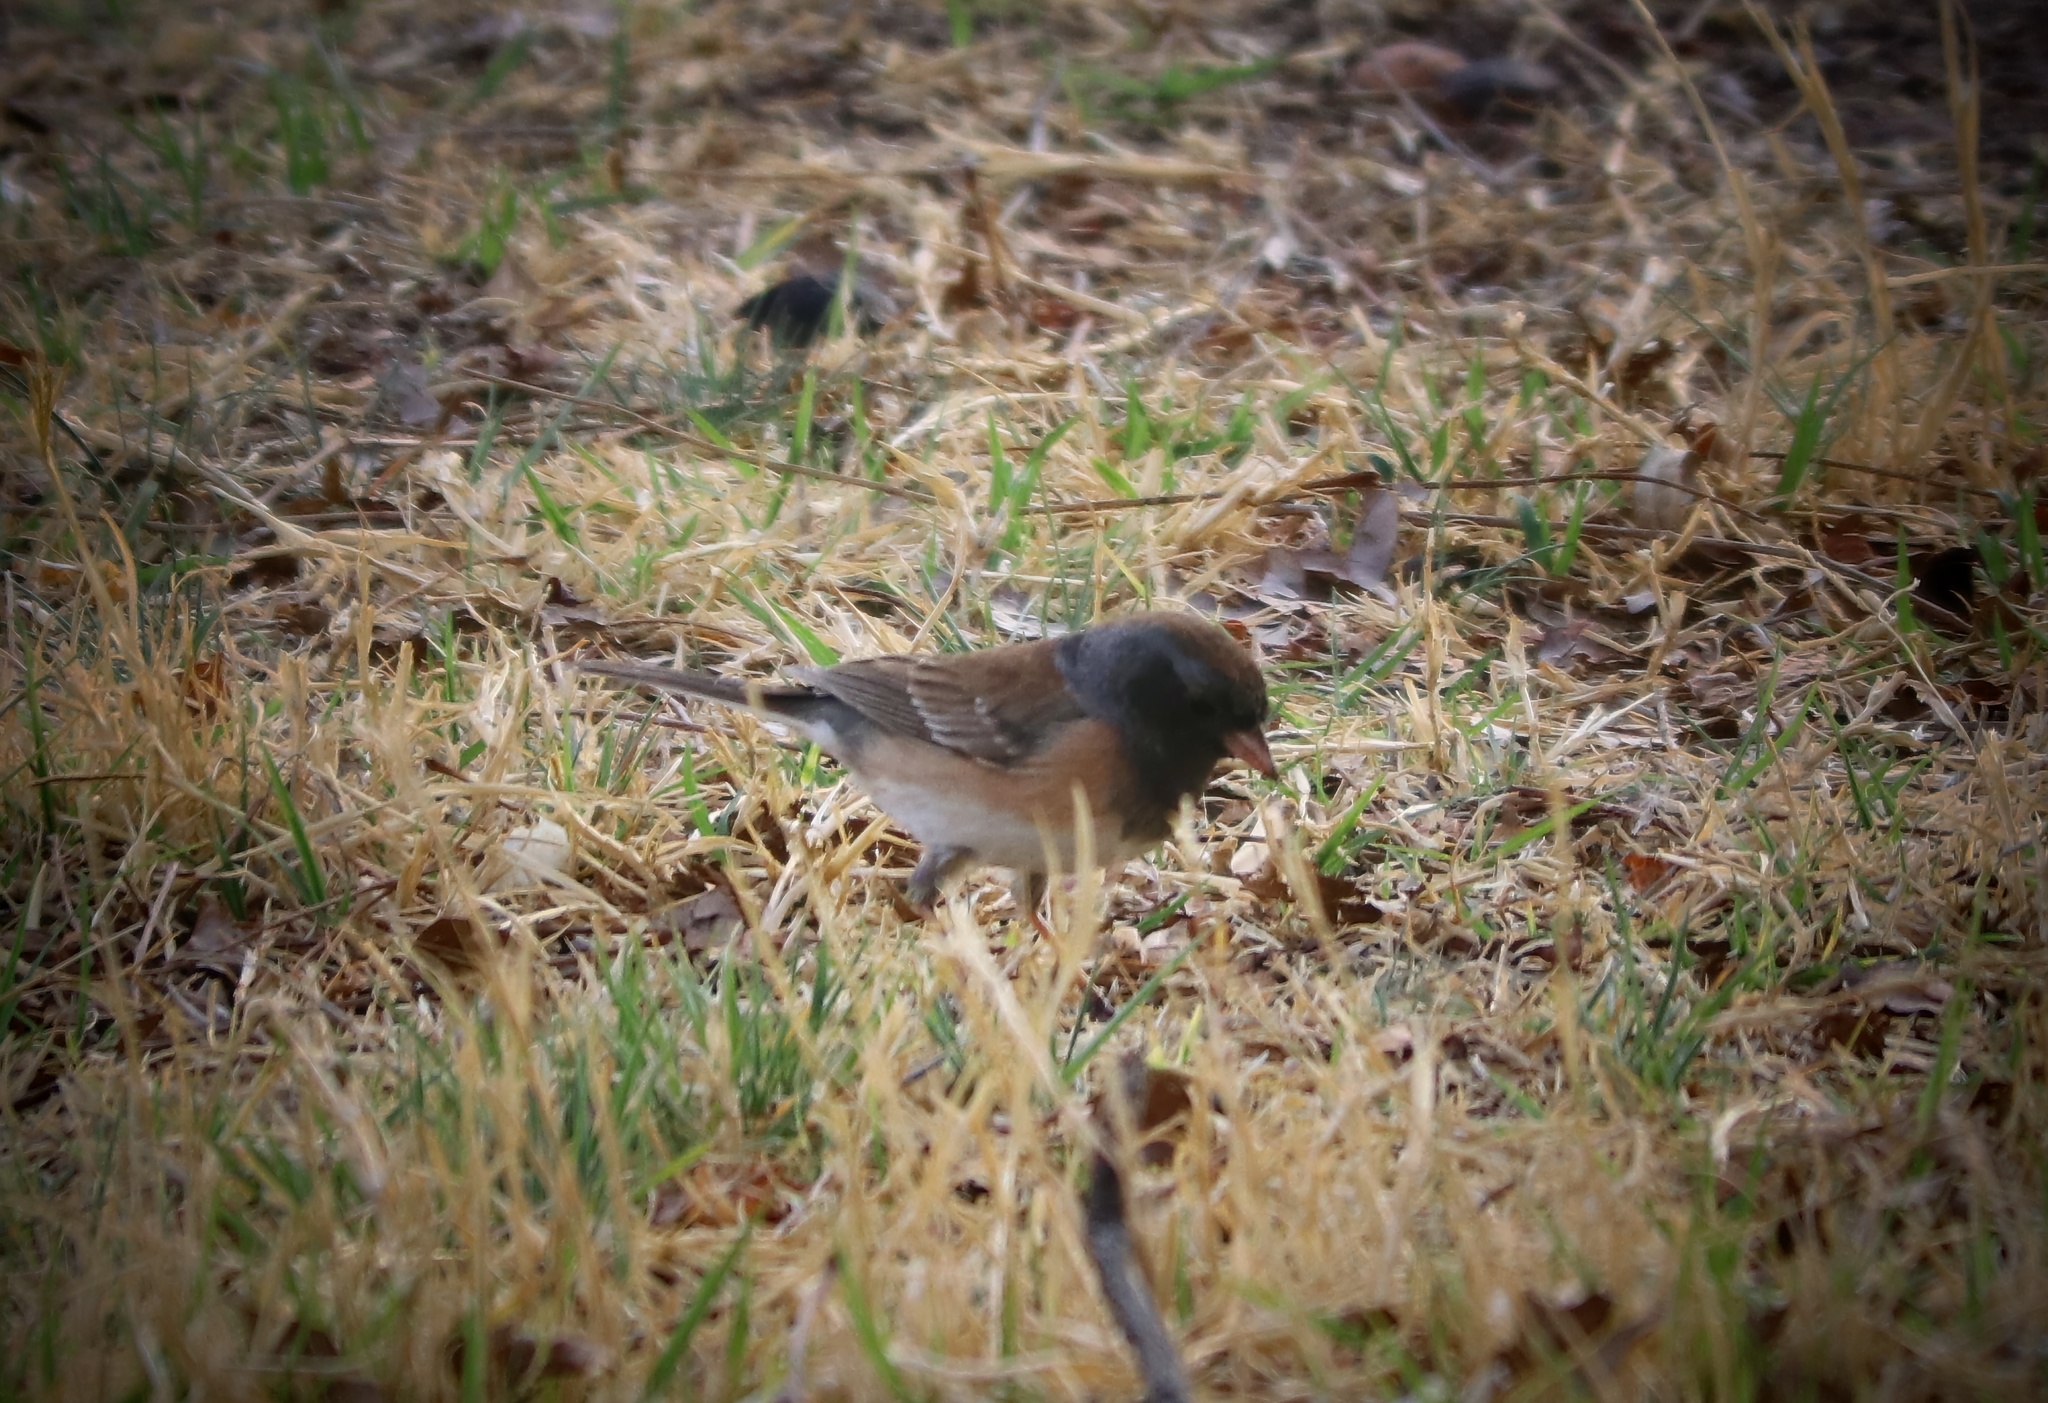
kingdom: Animalia
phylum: Chordata
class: Aves
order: Passeriformes
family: Passerellidae
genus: Junco
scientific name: Junco hyemalis
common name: Dark-eyed junco
